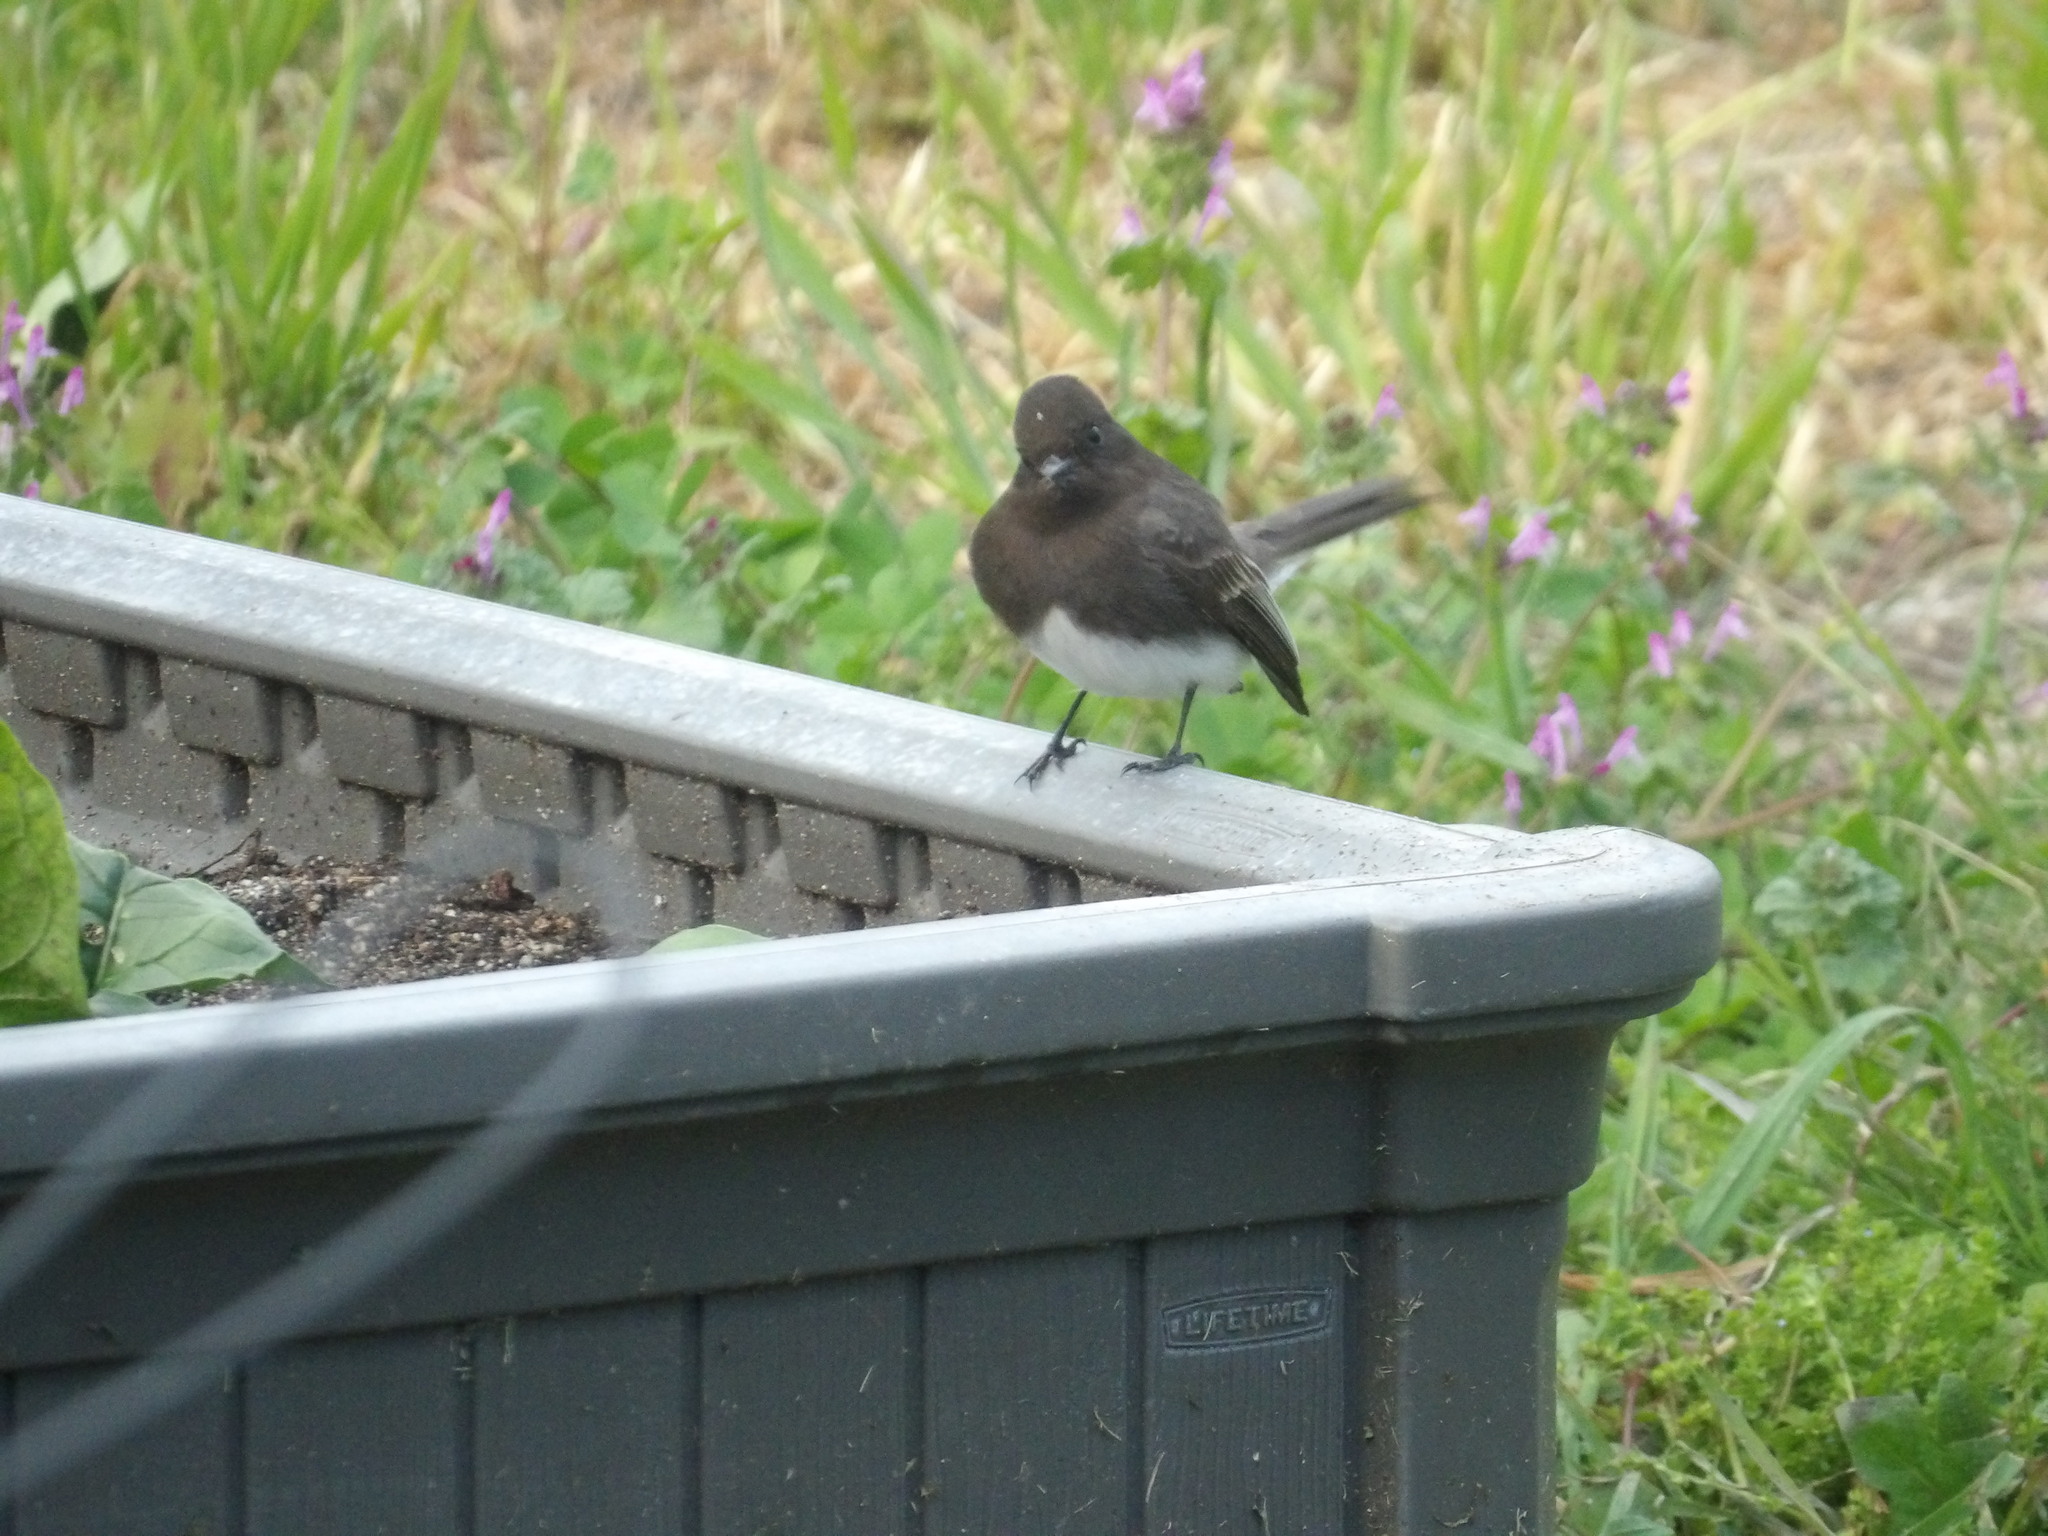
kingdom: Animalia
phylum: Chordata
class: Aves
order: Passeriformes
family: Tyrannidae
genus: Sayornis
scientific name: Sayornis nigricans
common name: Black phoebe
